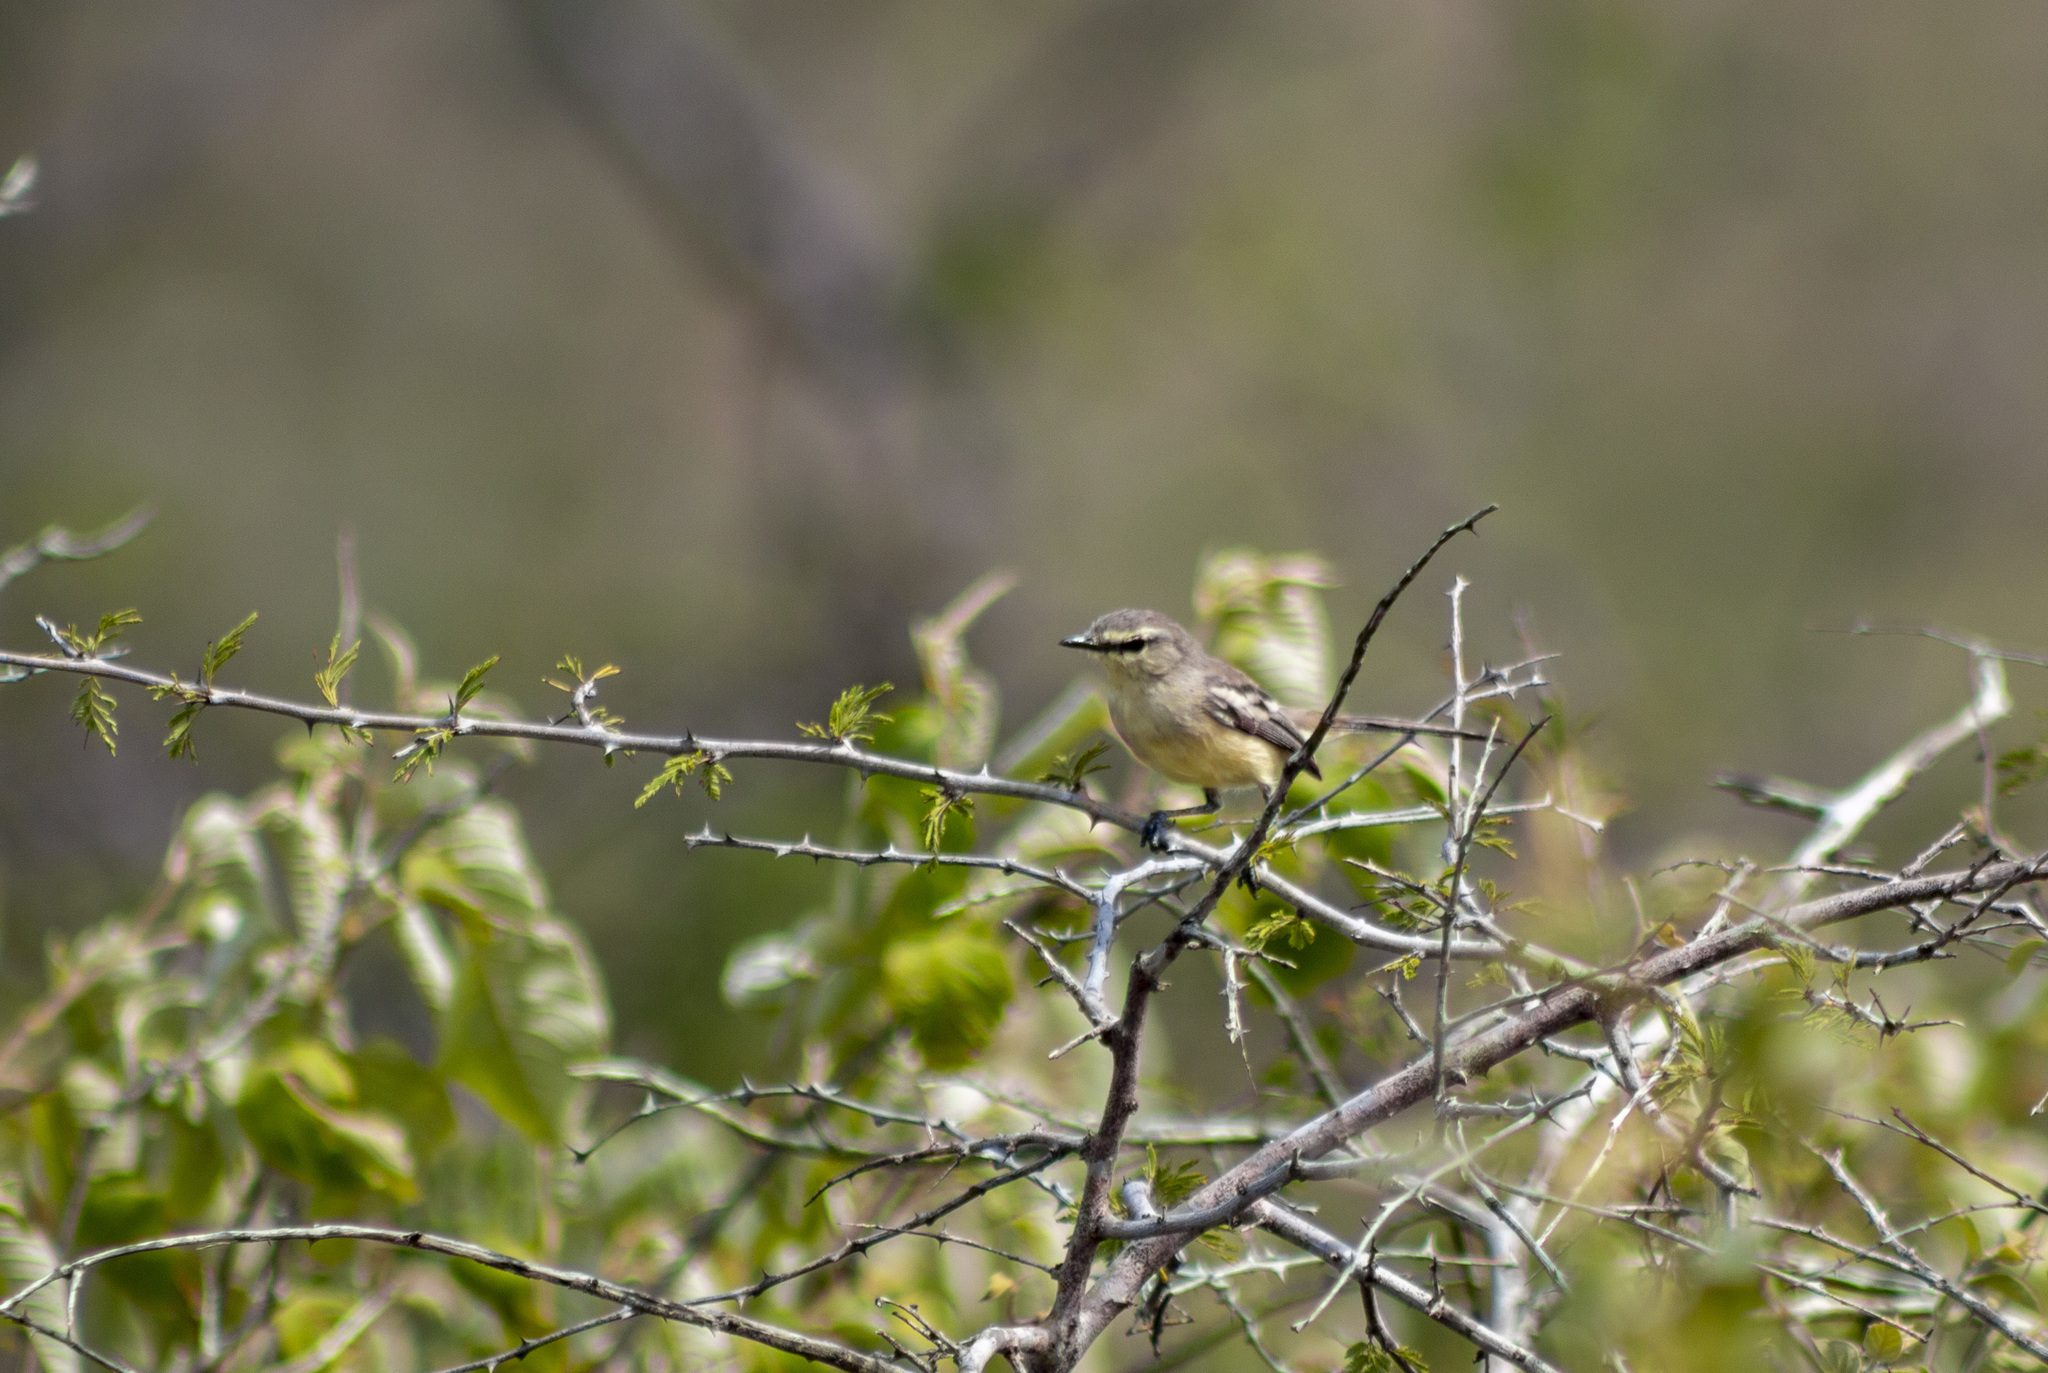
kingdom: Animalia
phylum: Chordata
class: Aves
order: Passeriformes
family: Tyrannidae
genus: Stigmatura
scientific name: Stigmatura bahiae
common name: Bahia wagtail-tyrant
